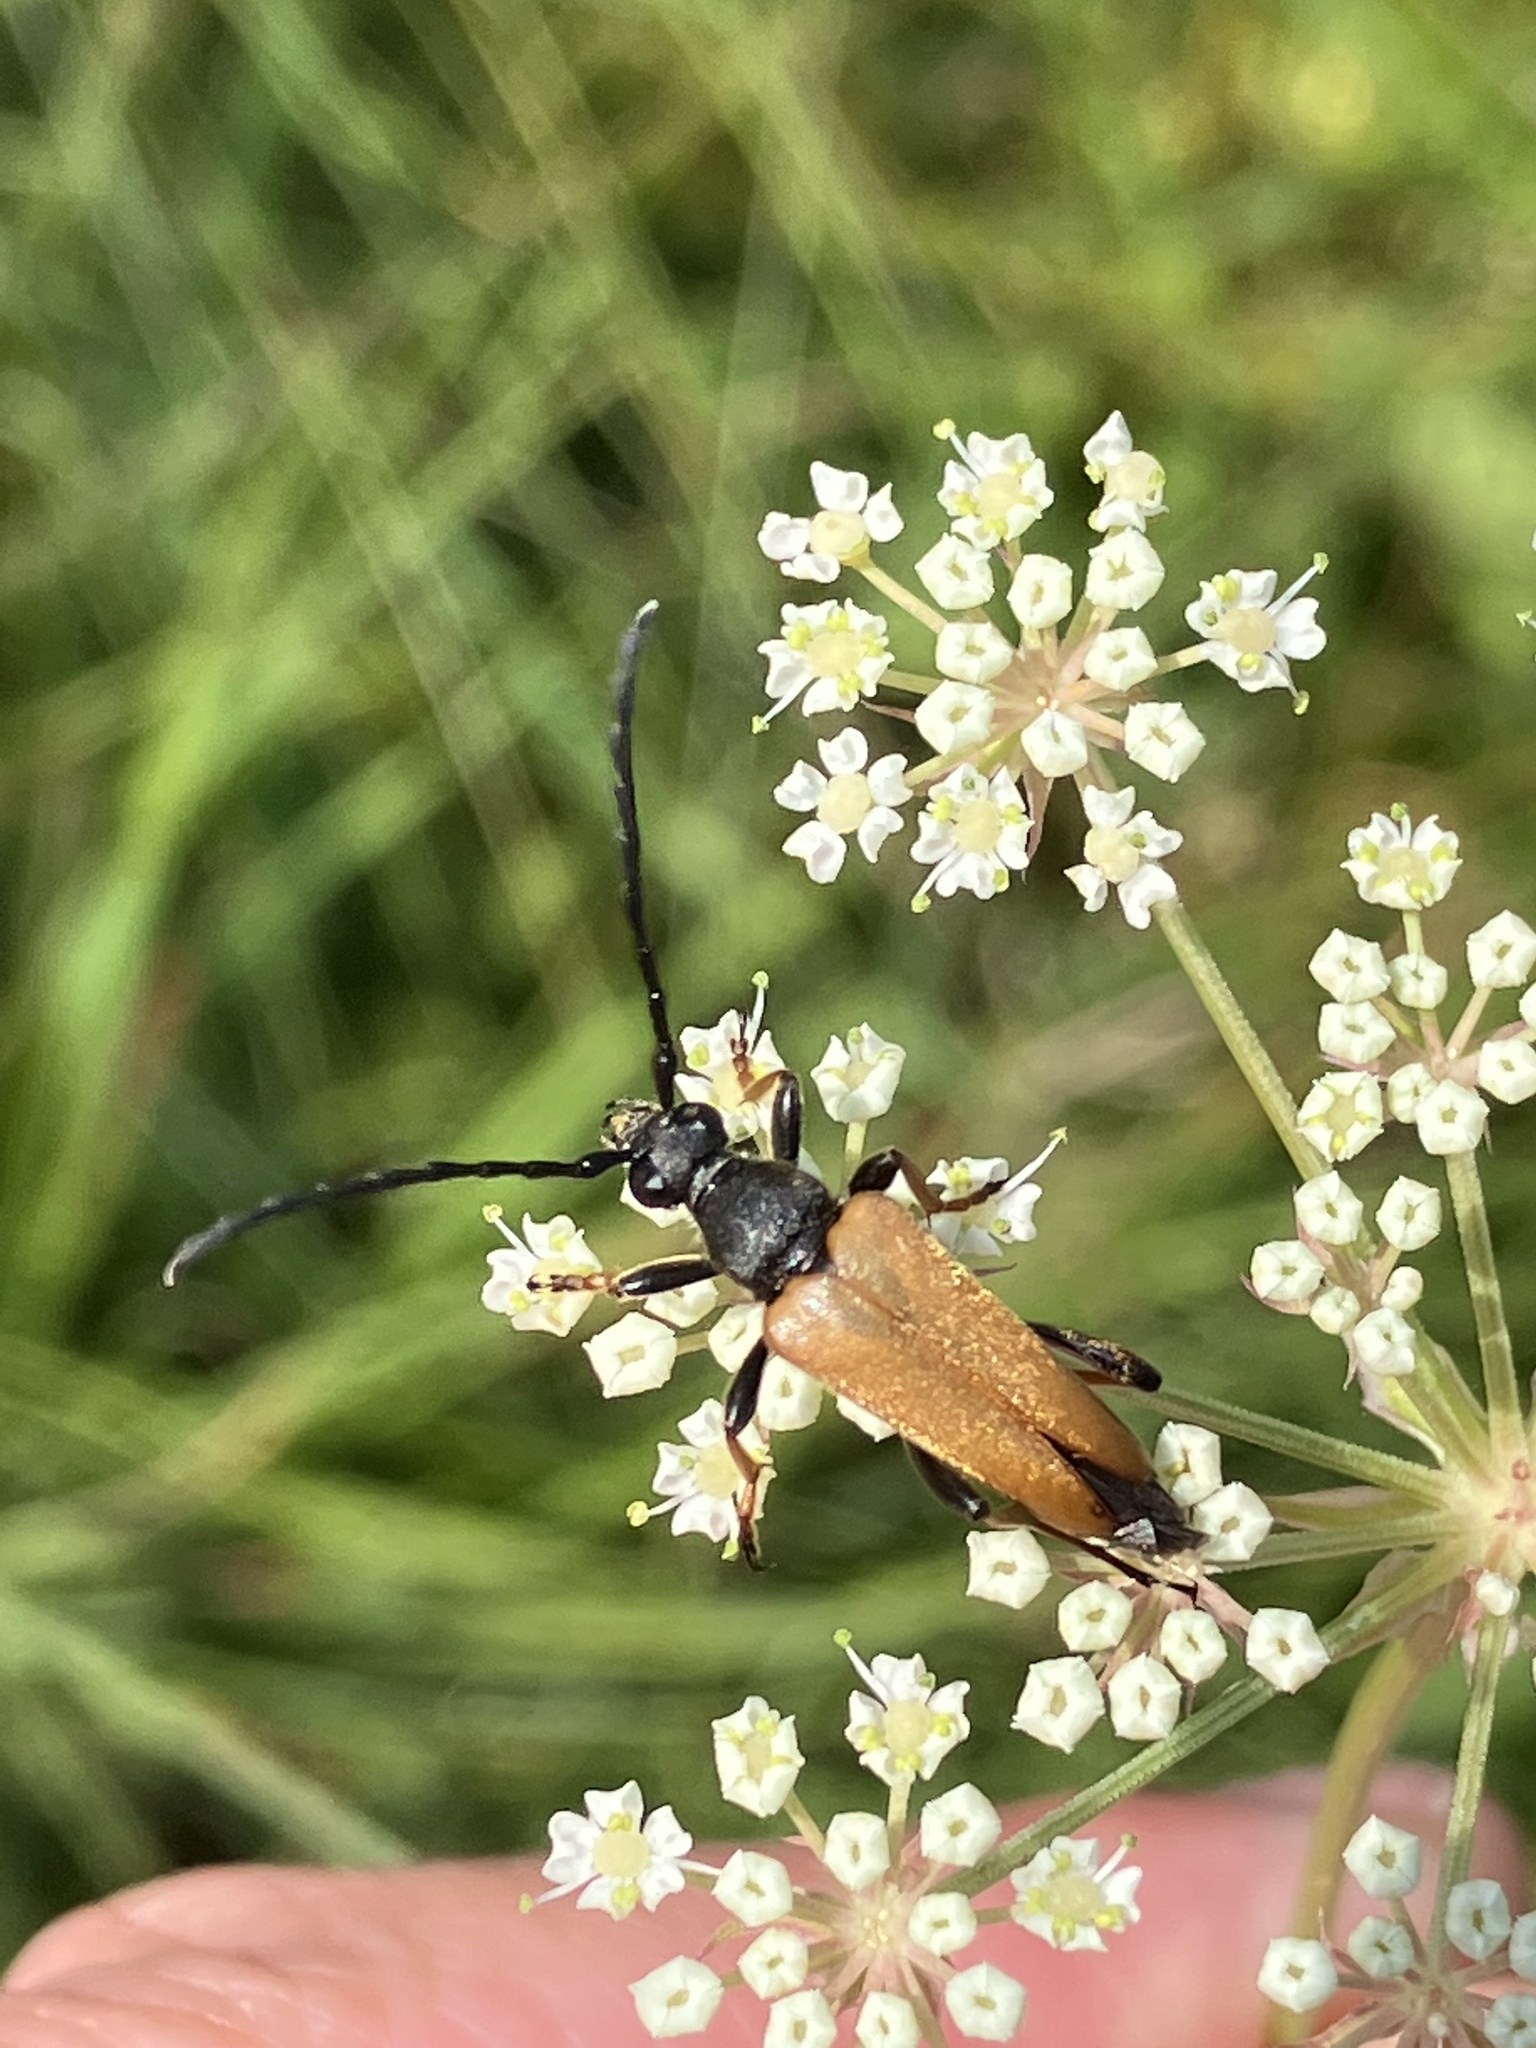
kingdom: Animalia
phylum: Arthropoda
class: Insecta
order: Coleoptera
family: Cerambycidae
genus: Stictoleptura
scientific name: Stictoleptura rubra
